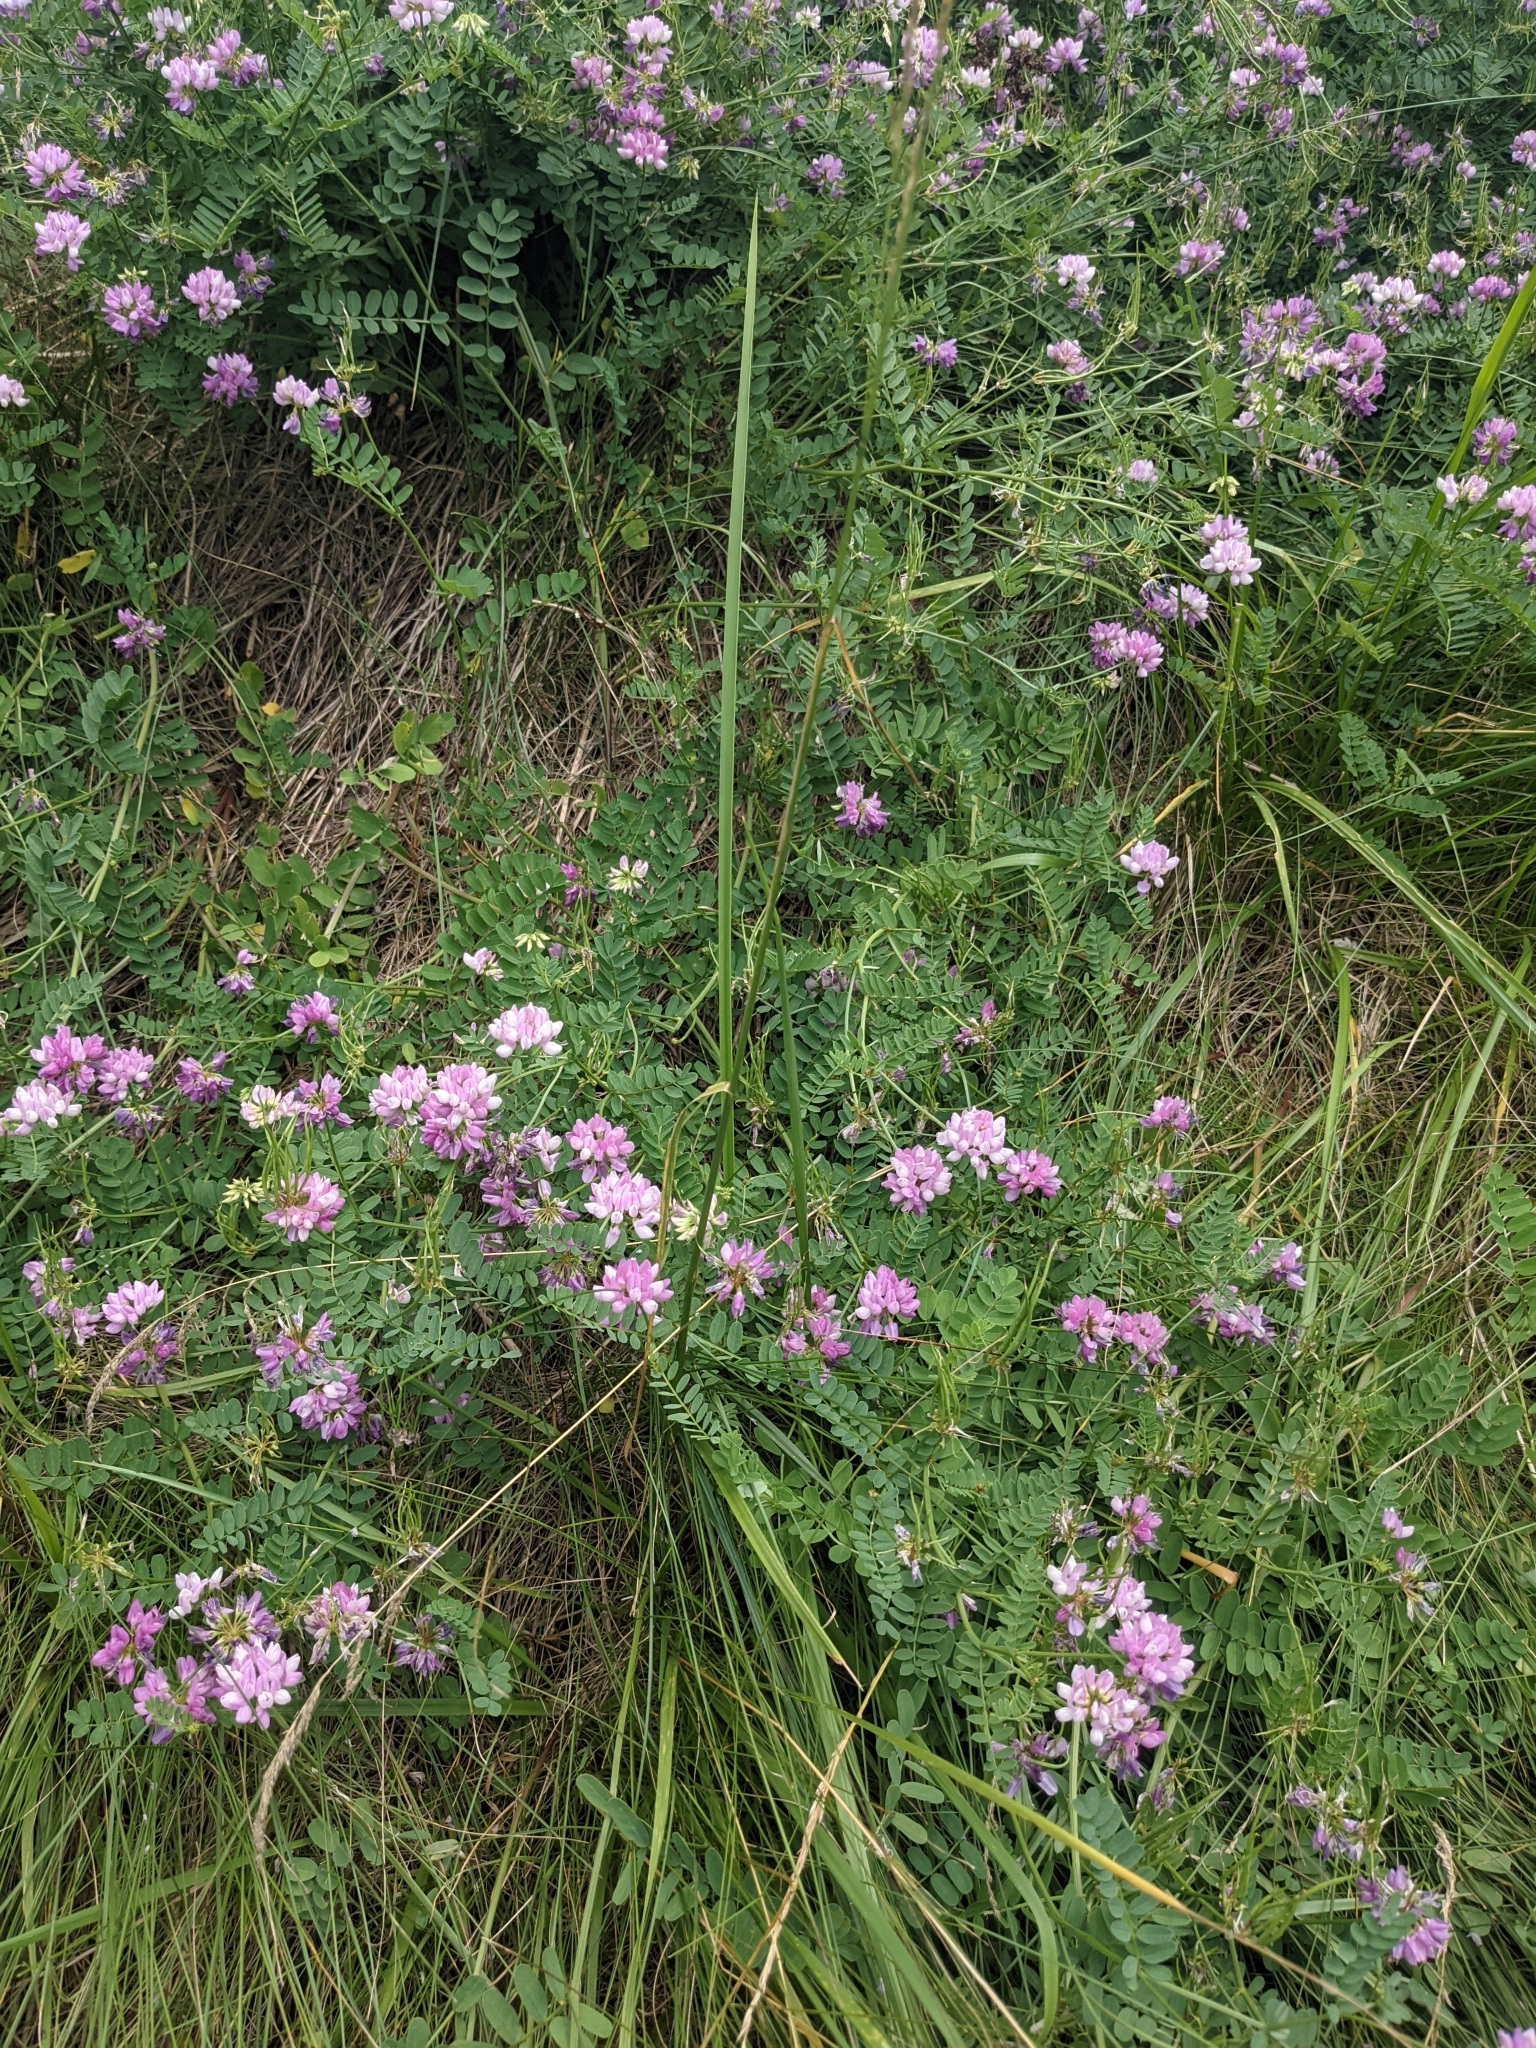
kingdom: Plantae
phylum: Tracheophyta
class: Magnoliopsida
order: Fabales
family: Fabaceae
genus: Coronilla
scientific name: Coronilla varia
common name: Crownvetch
